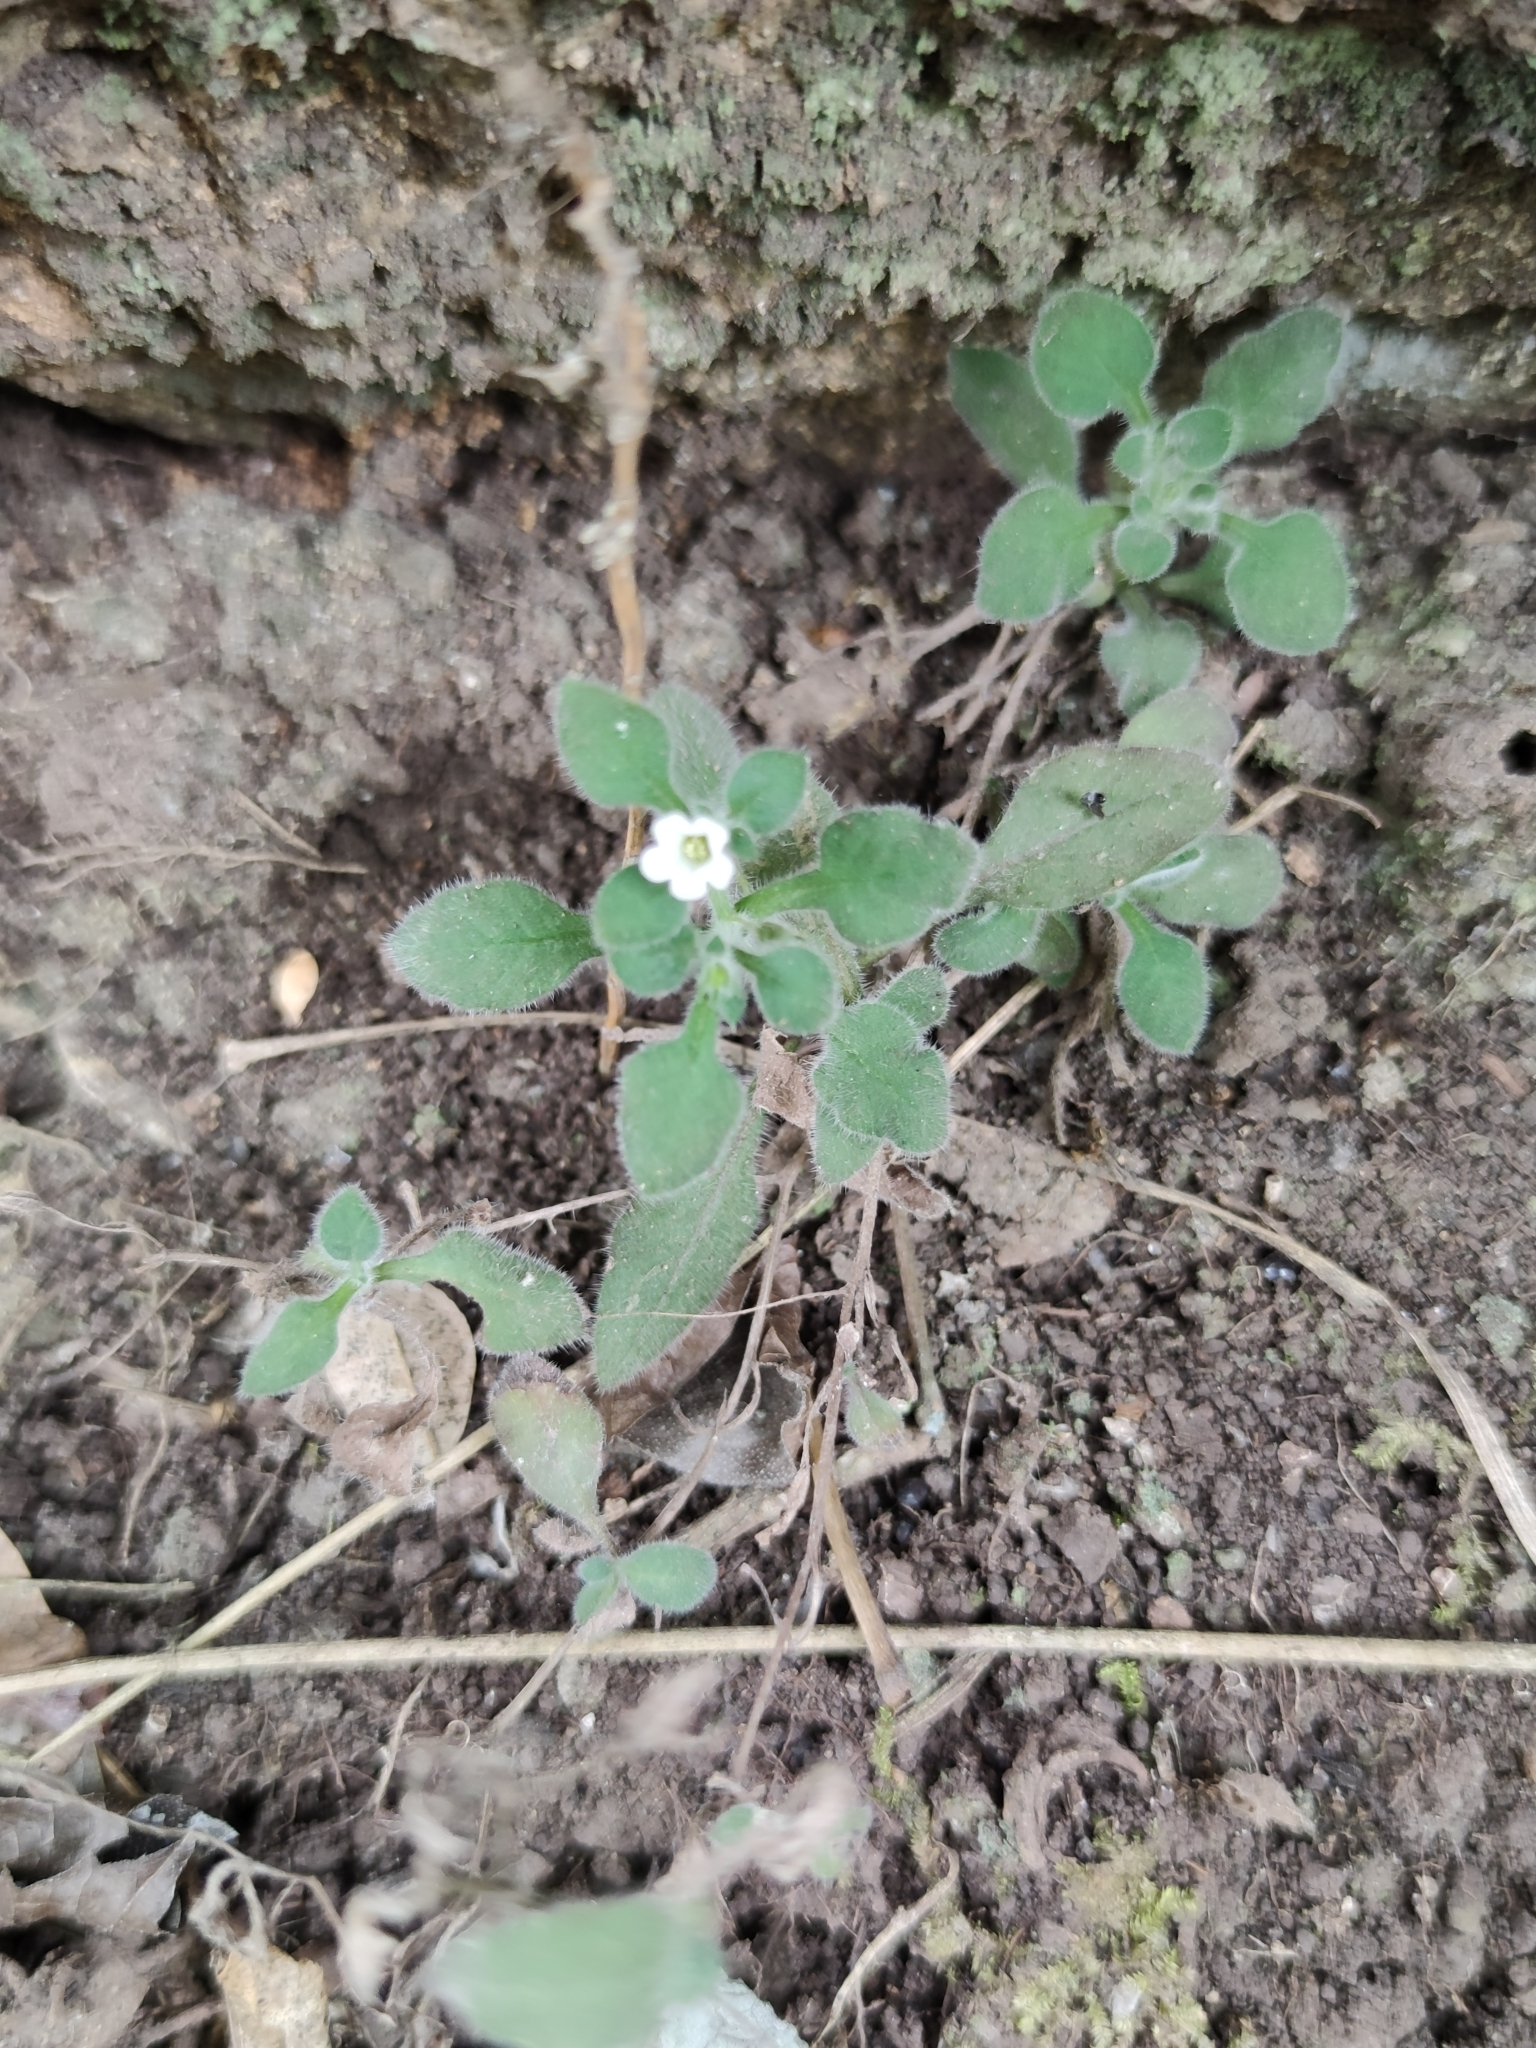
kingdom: Plantae
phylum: Tracheophyta
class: Magnoliopsida
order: Boraginales
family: Namaceae
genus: Nama
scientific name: Nama jamaicensis
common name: Jamaicanweed
